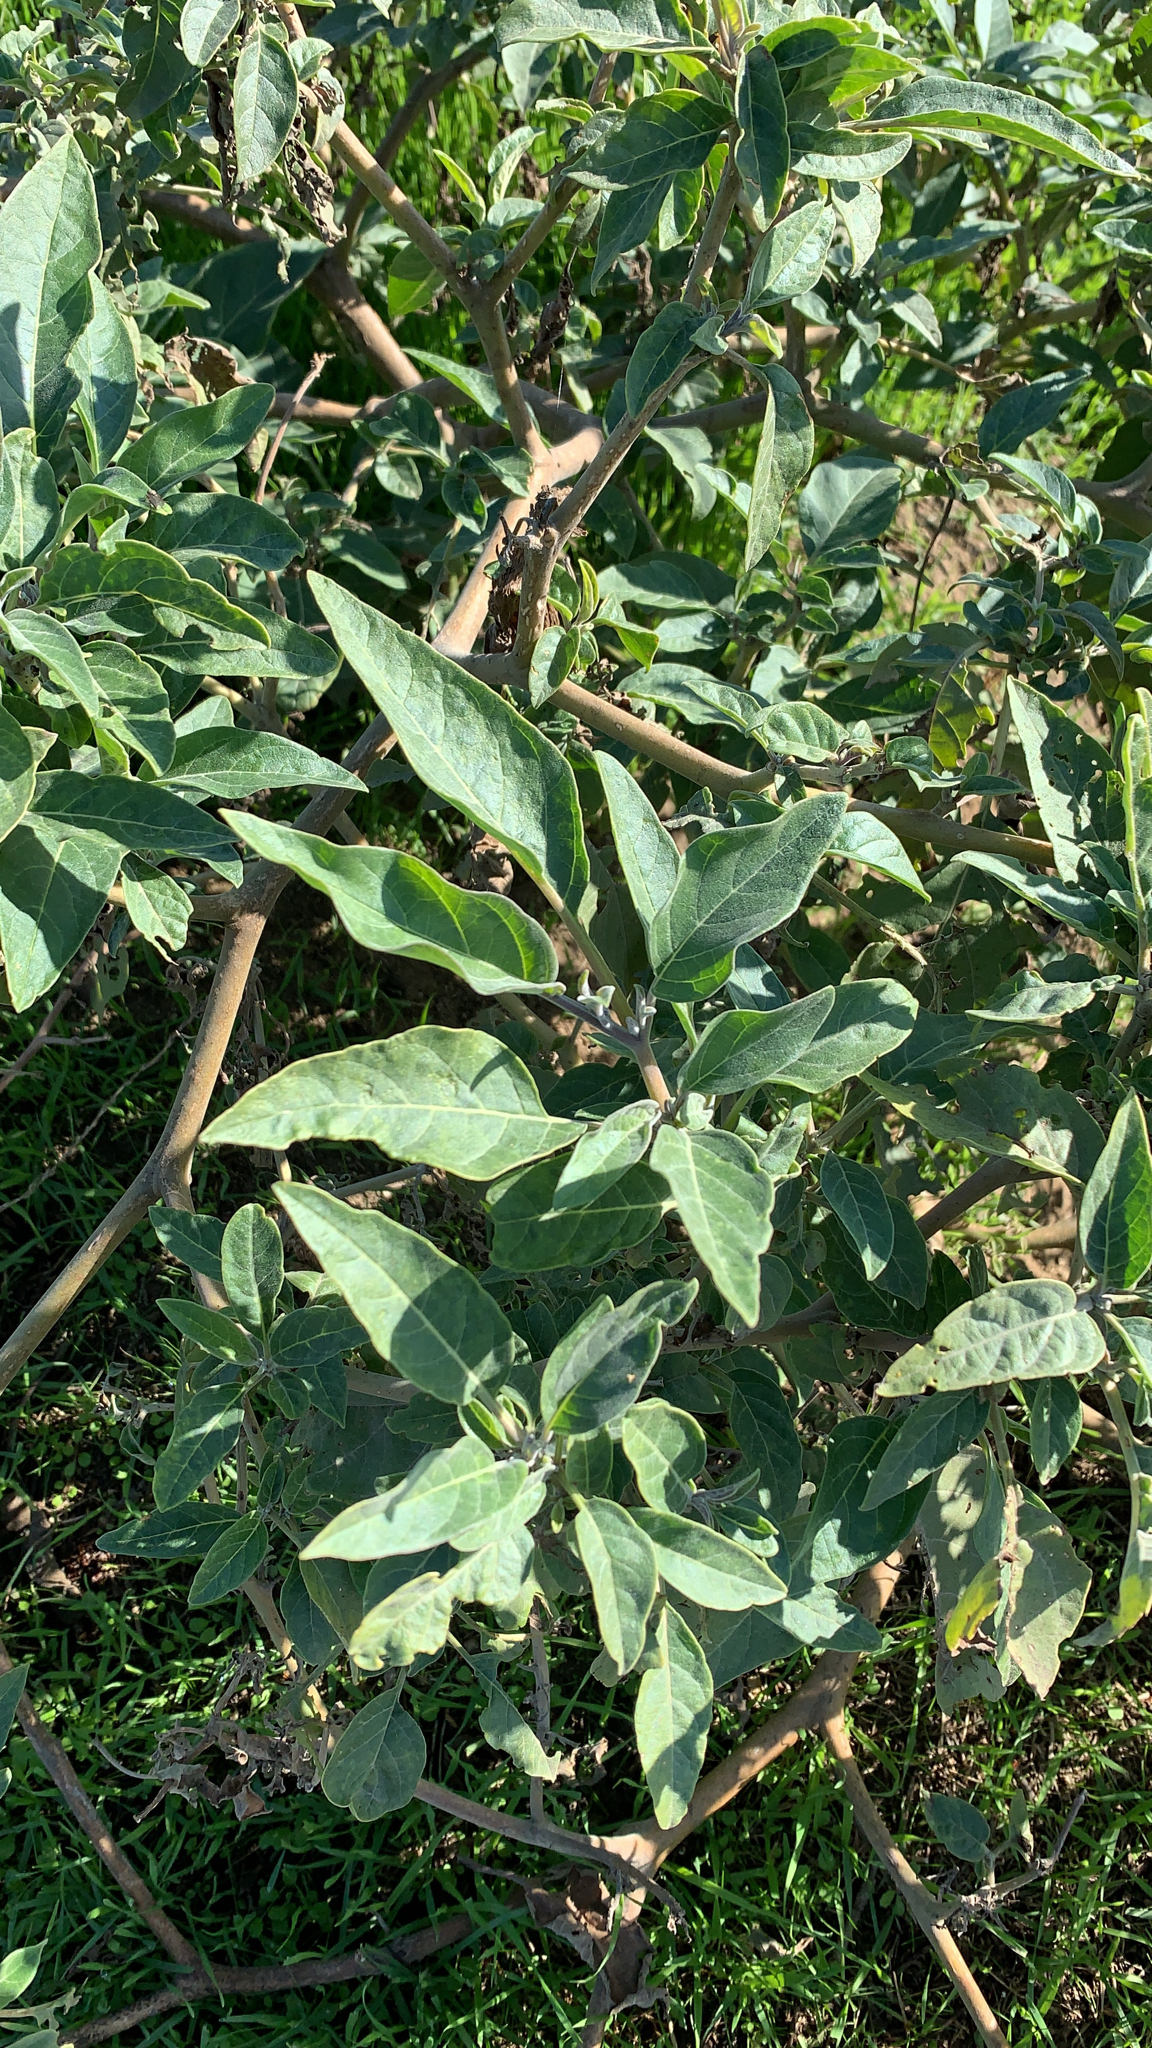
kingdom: Plantae
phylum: Tracheophyta
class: Magnoliopsida
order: Solanales
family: Solanaceae
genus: Datura
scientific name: Datura wrightii
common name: Sacred thorn-apple
